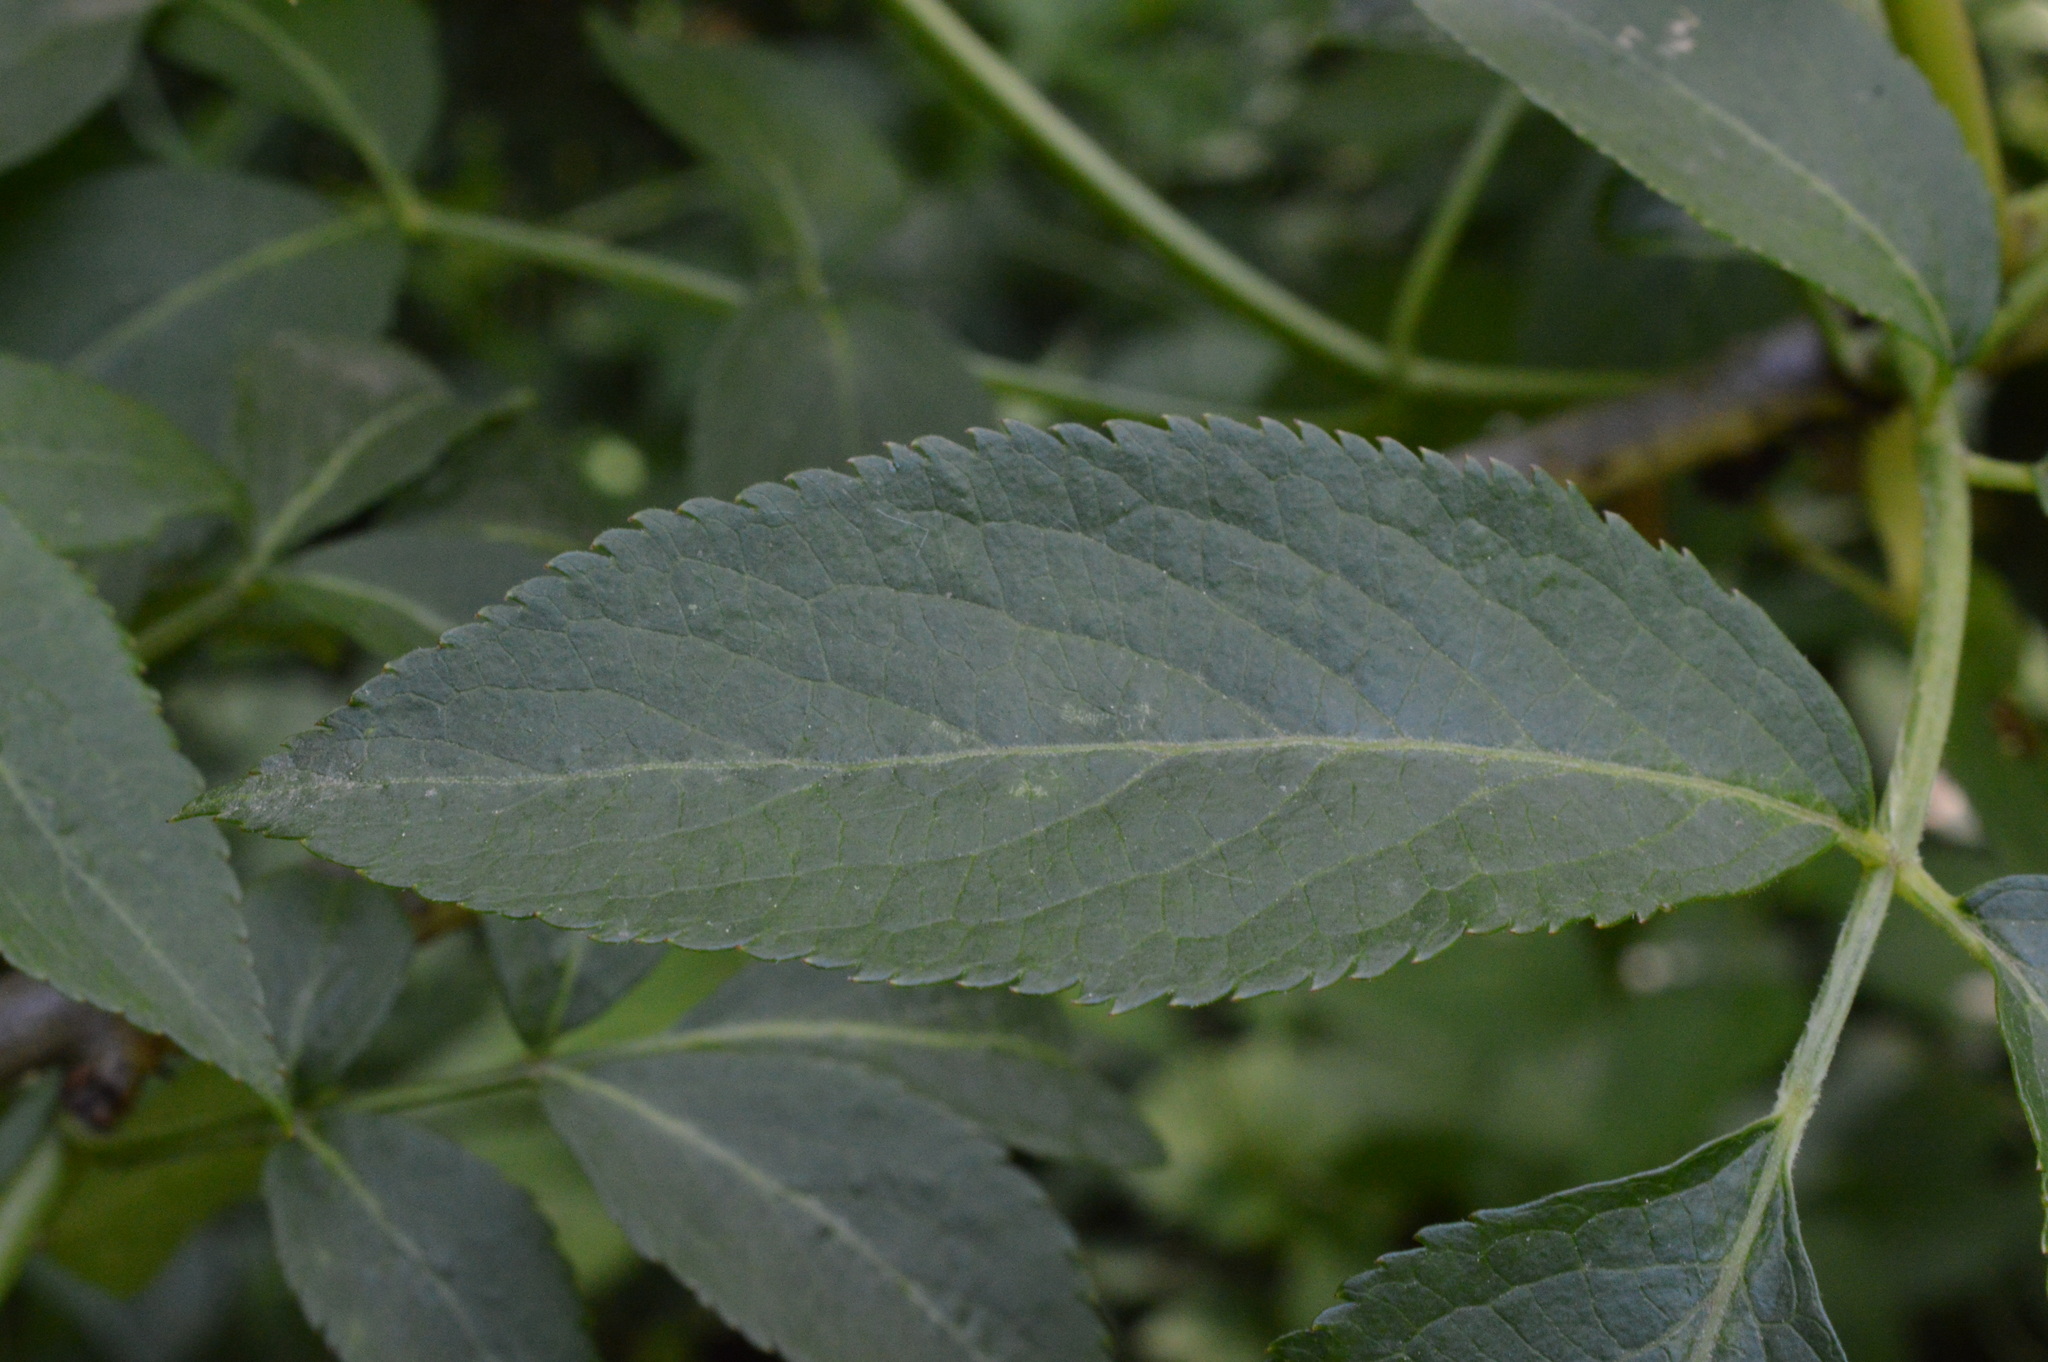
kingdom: Plantae
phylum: Tracheophyta
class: Magnoliopsida
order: Dipsacales
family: Viburnaceae
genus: Sambucus
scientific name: Sambucus nigra
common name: Elder
